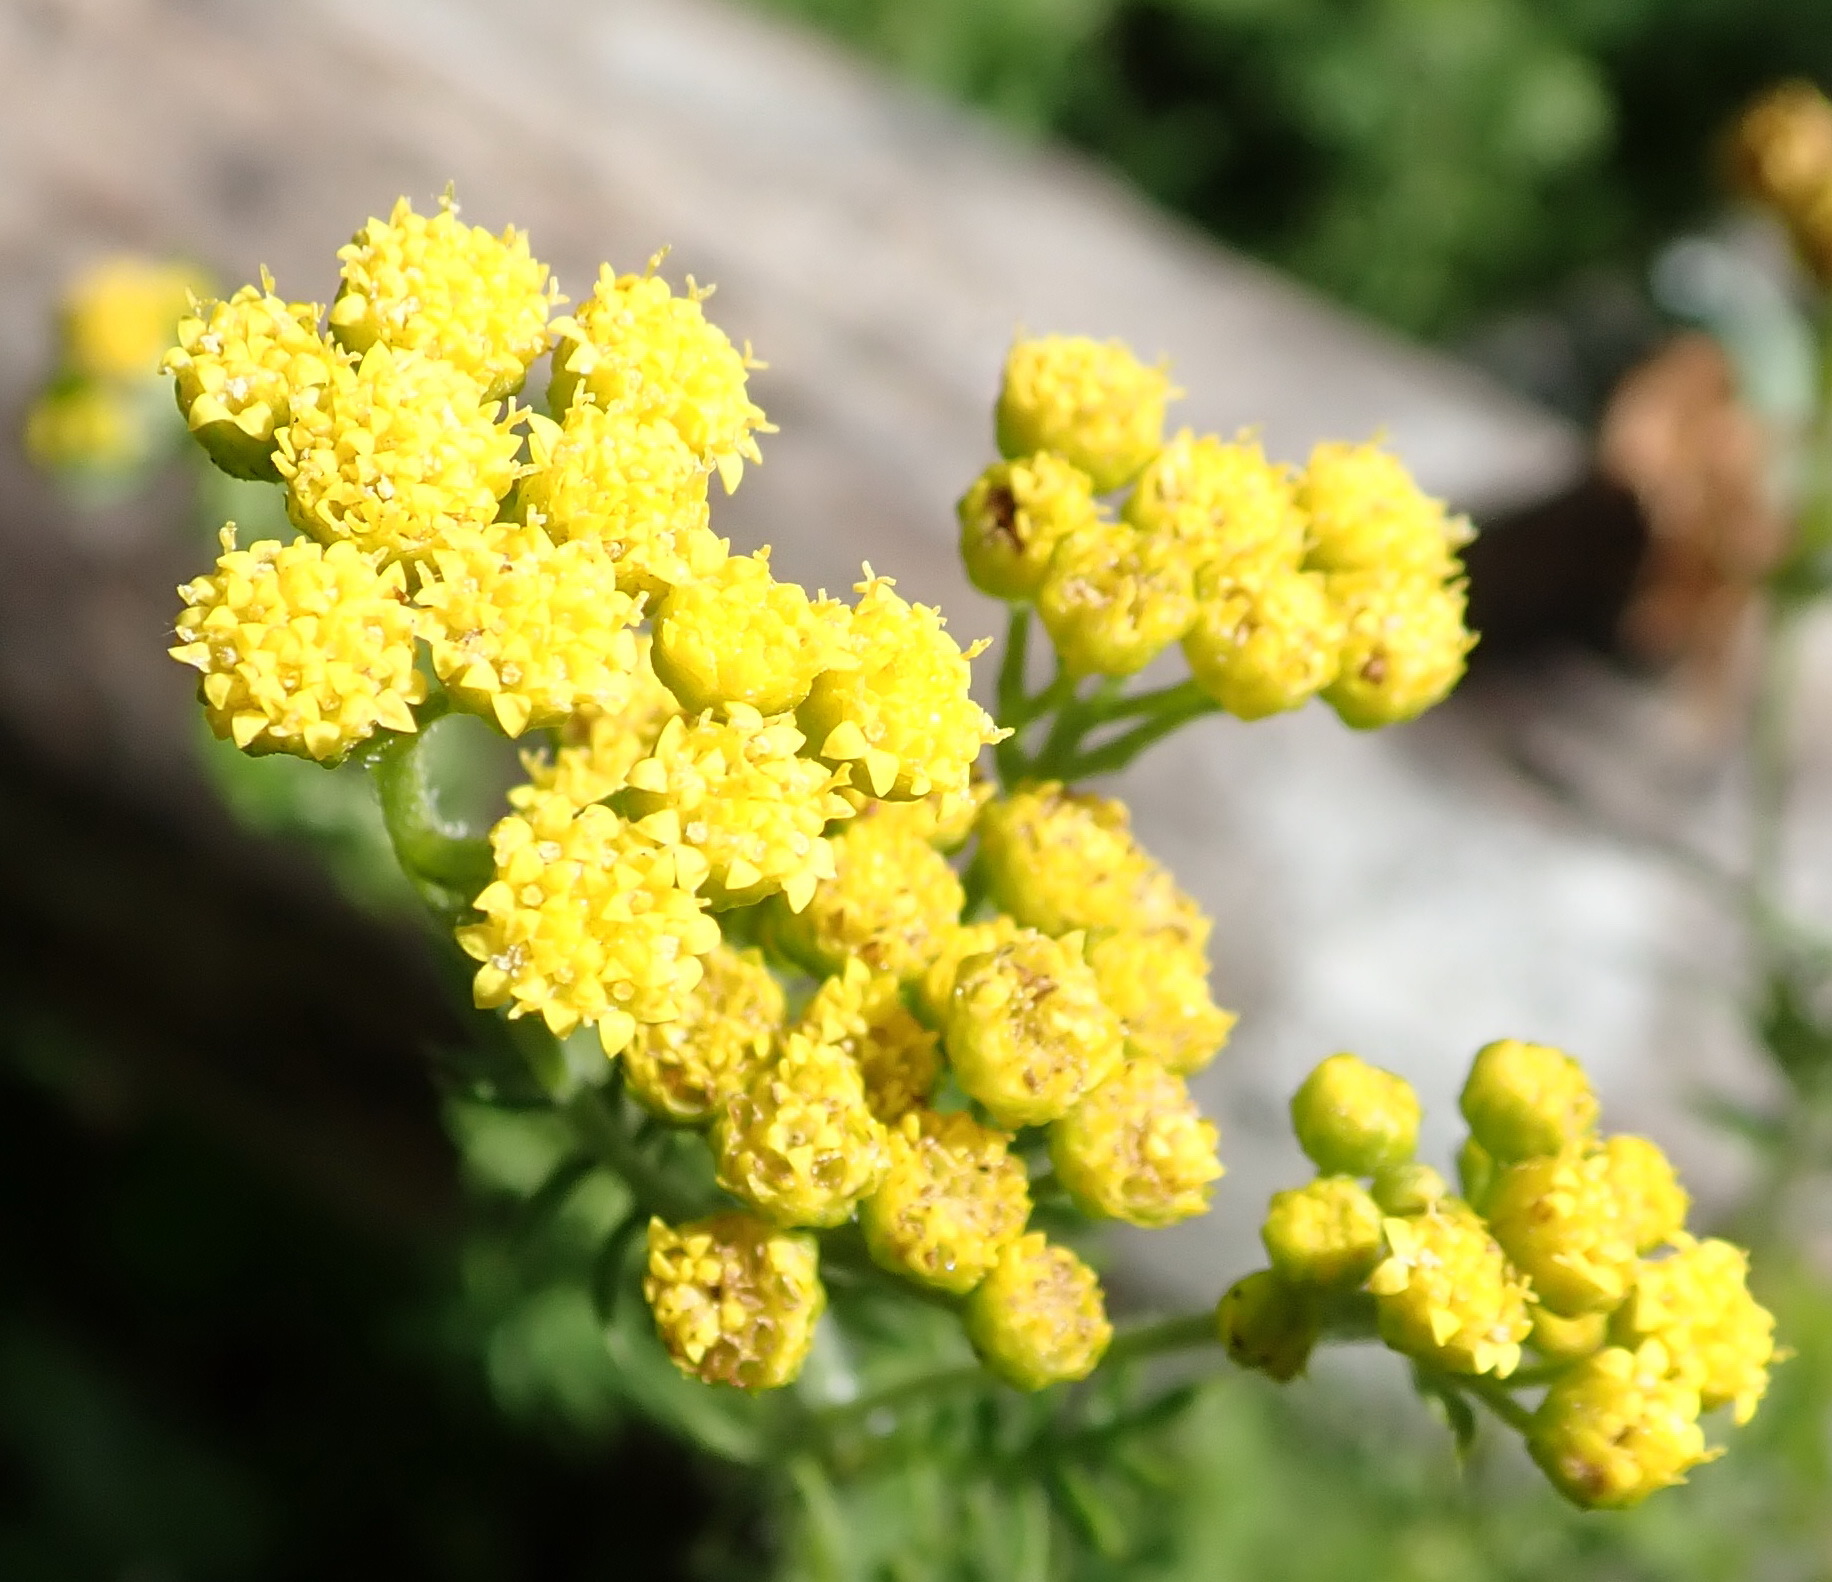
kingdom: Plantae
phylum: Tracheophyta
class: Magnoliopsida
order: Asterales
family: Asteraceae
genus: Hippia
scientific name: Hippia frutescens
